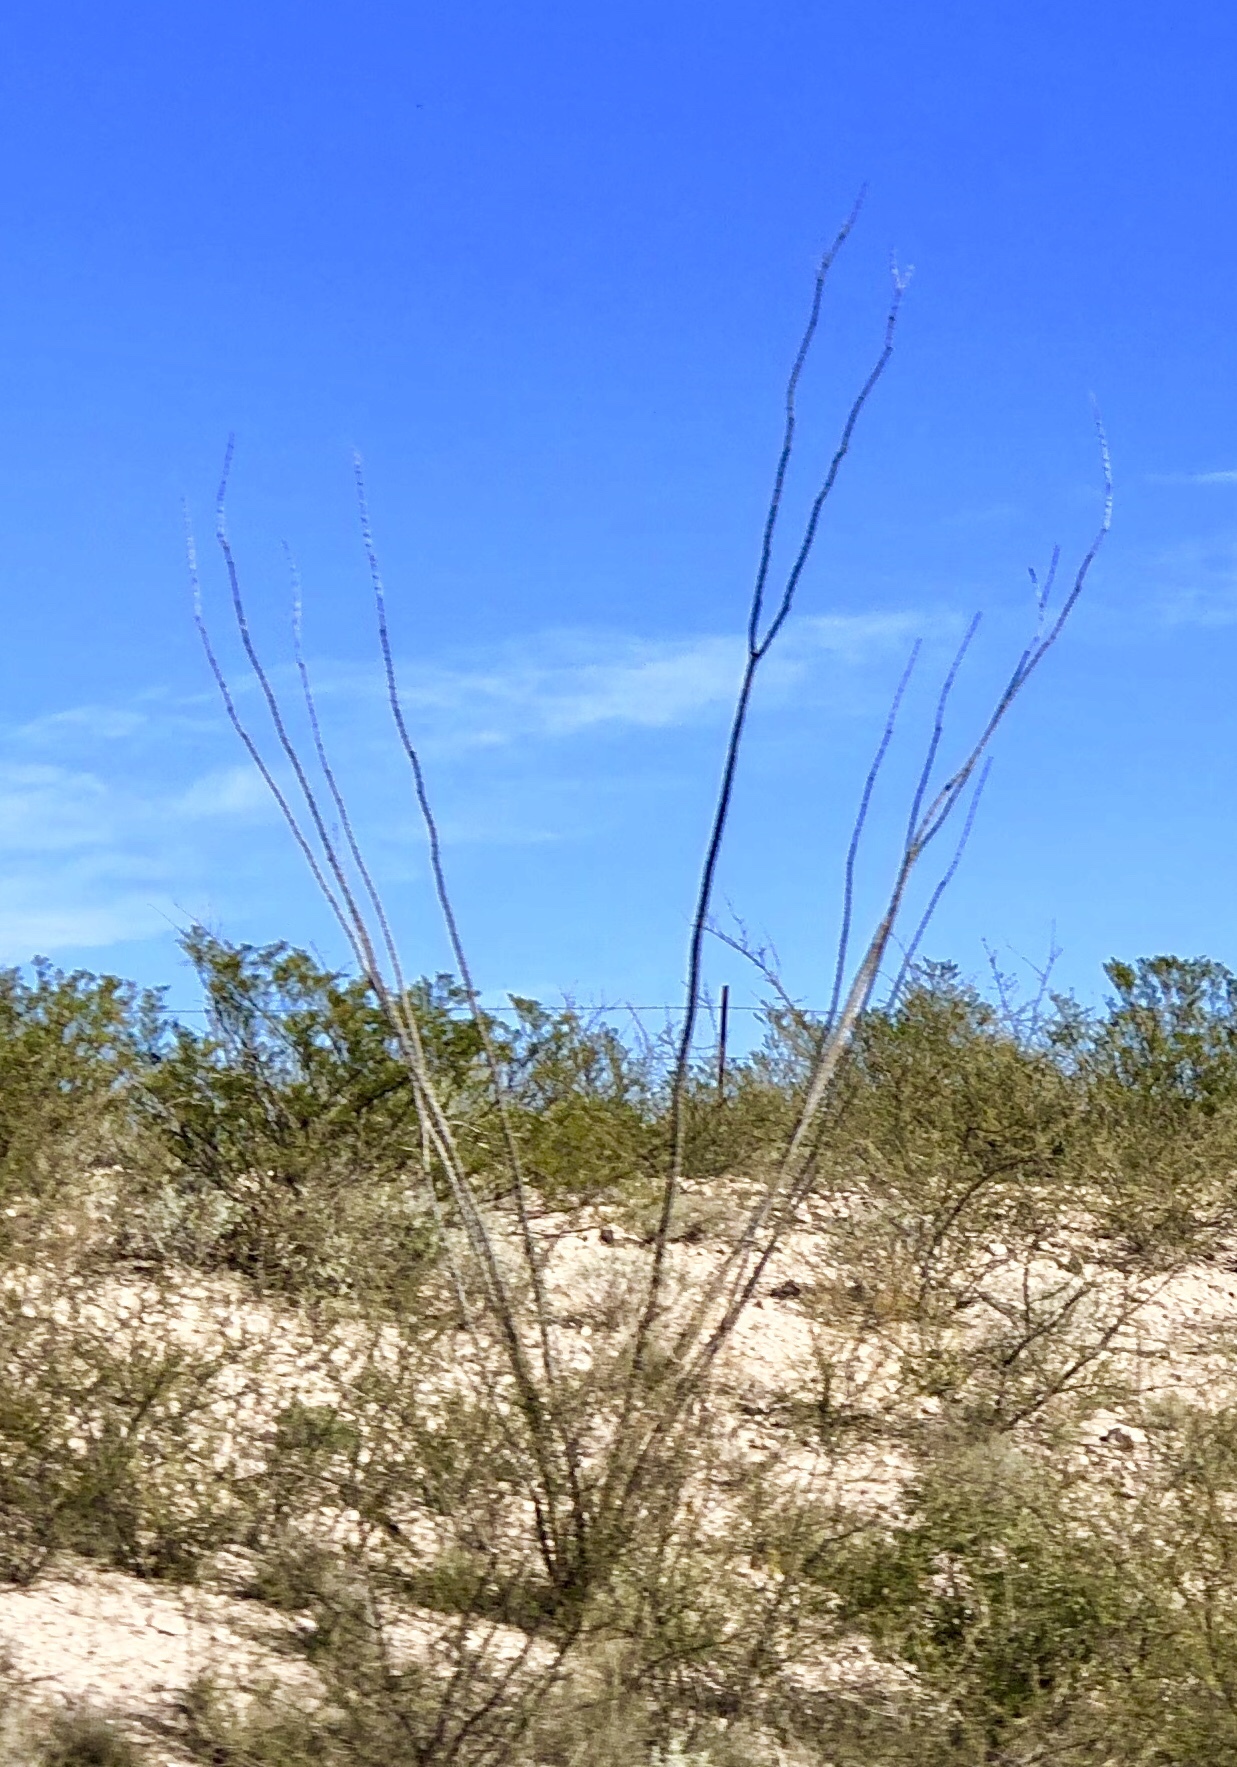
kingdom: Plantae
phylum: Tracheophyta
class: Magnoliopsida
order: Ericales
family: Fouquieriaceae
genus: Fouquieria
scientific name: Fouquieria splendens
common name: Vine-cactus
